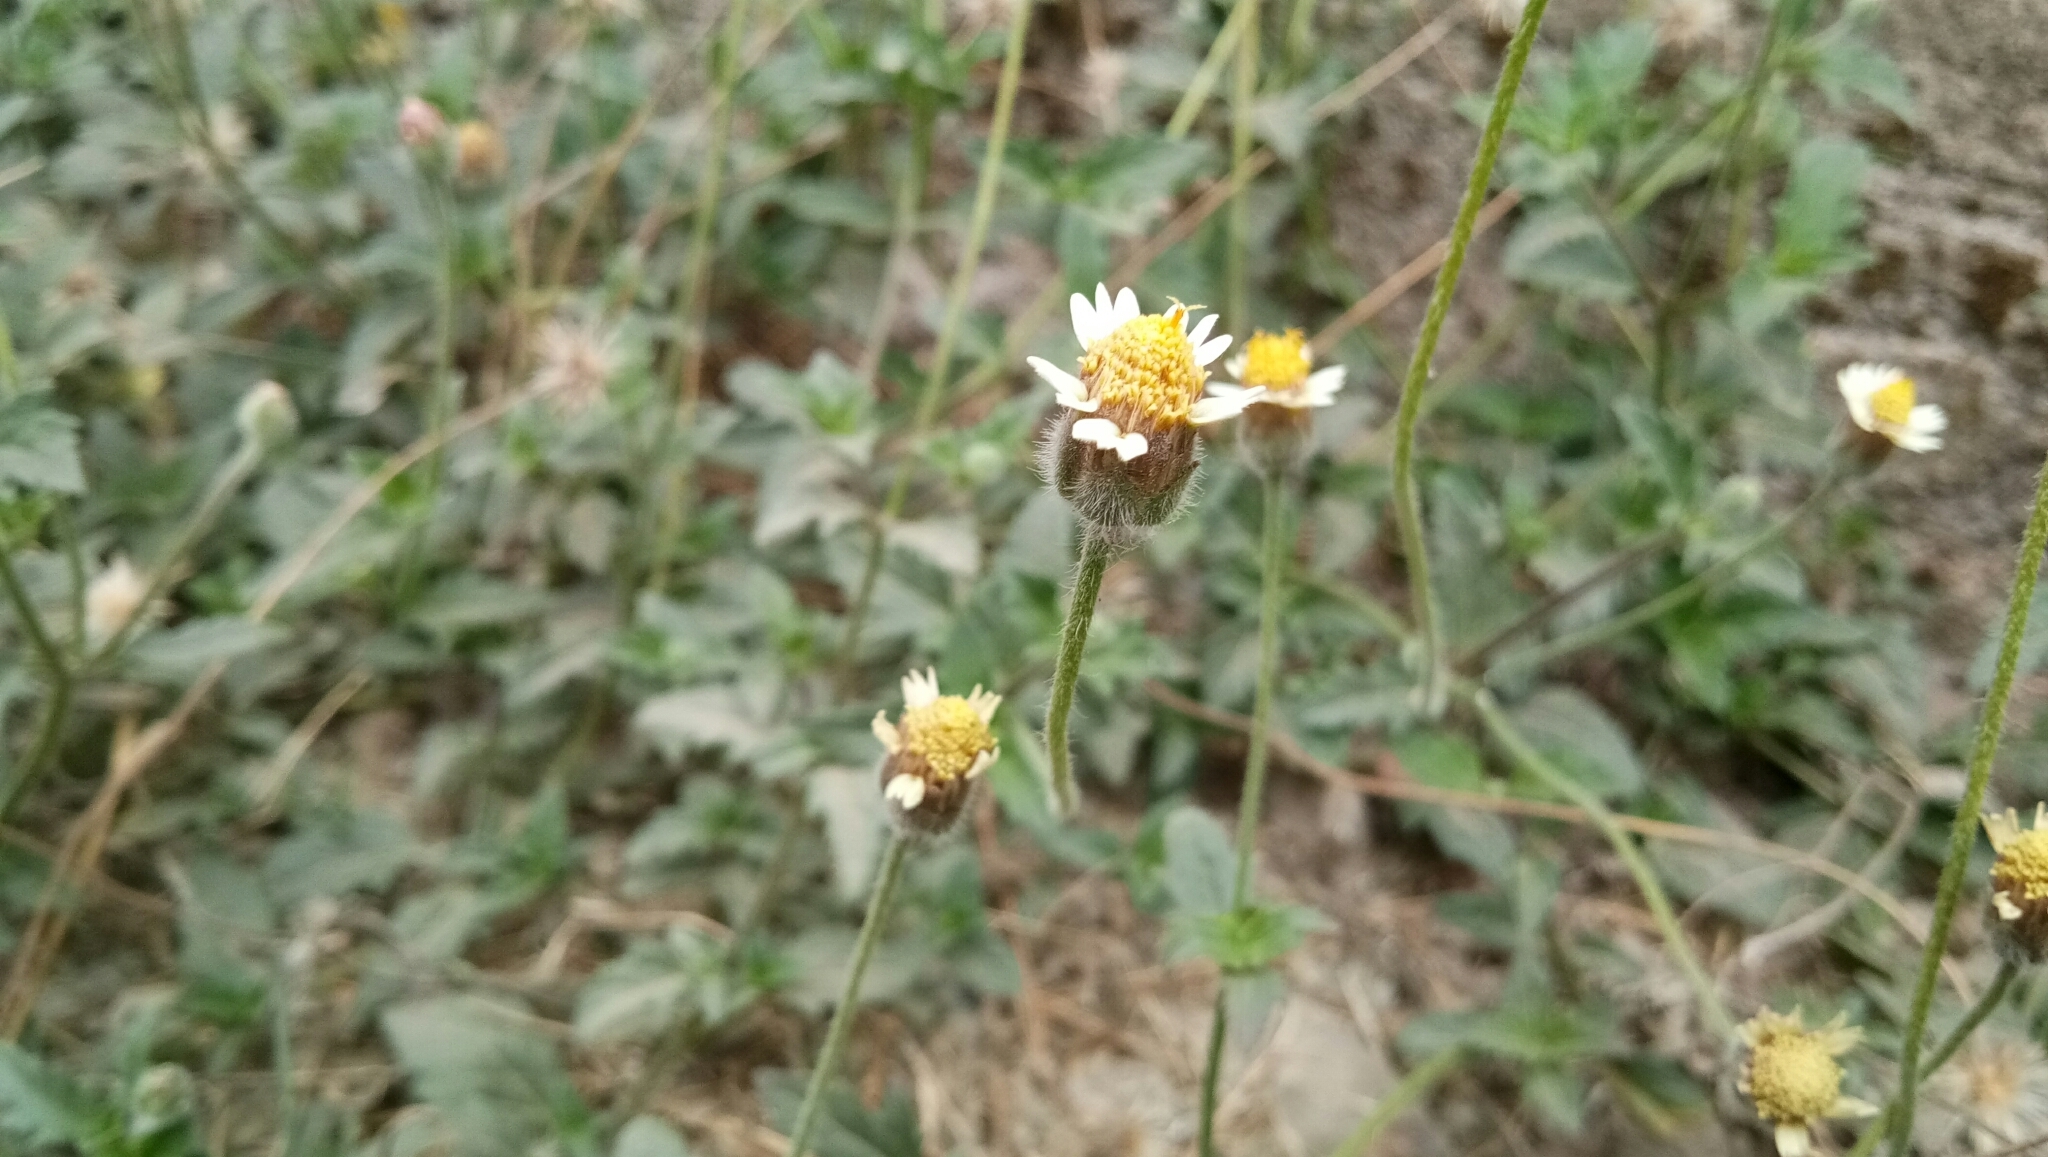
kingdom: Plantae
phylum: Tracheophyta
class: Magnoliopsida
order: Asterales
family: Asteraceae
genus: Tridax
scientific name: Tridax procumbens
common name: Coatbuttons
